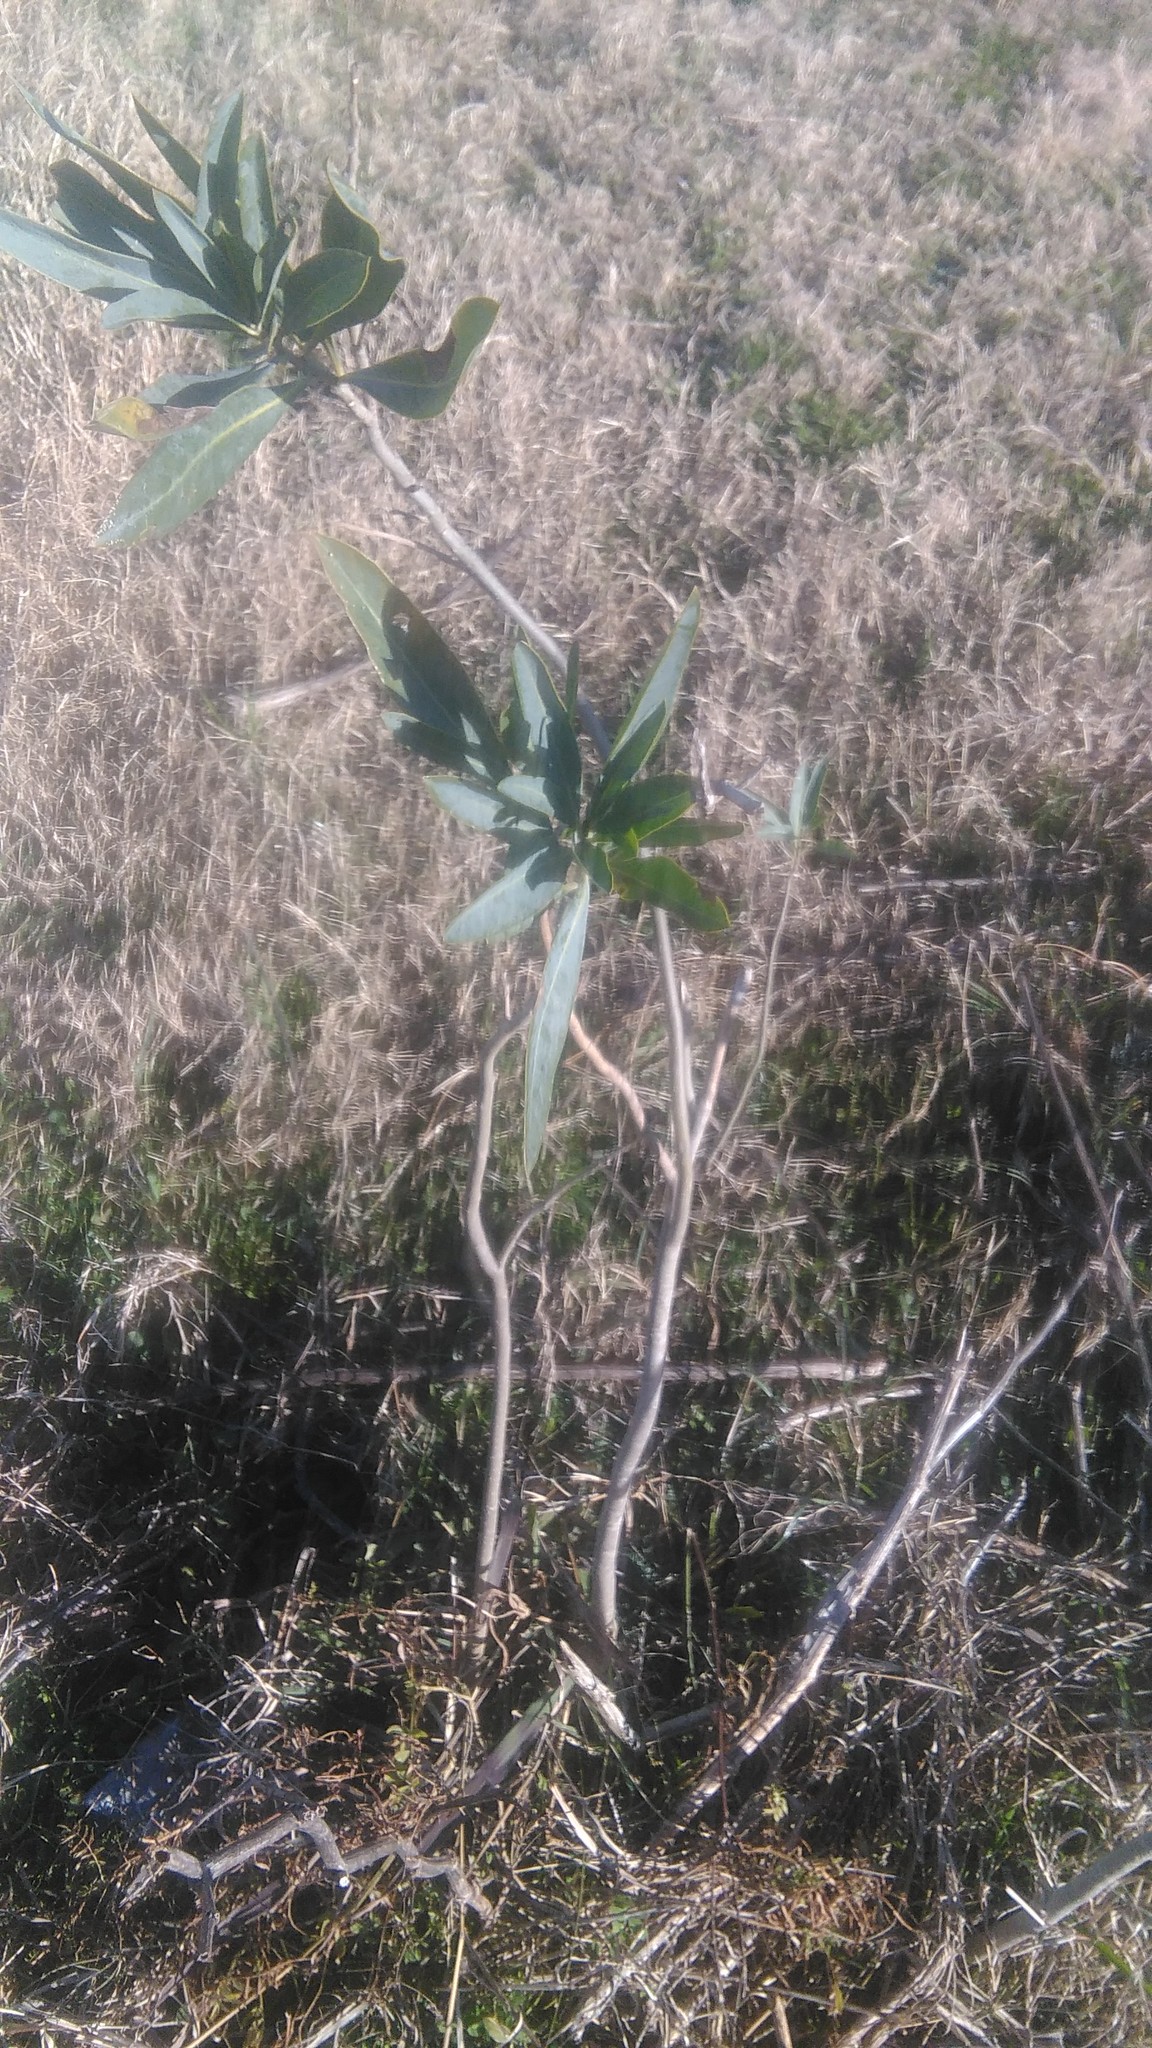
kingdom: Plantae
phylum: Tracheophyta
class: Magnoliopsida
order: Solanales
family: Solanaceae
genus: Solanum
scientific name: Solanum glaucophyllum
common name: Waxyleaf nightshade
